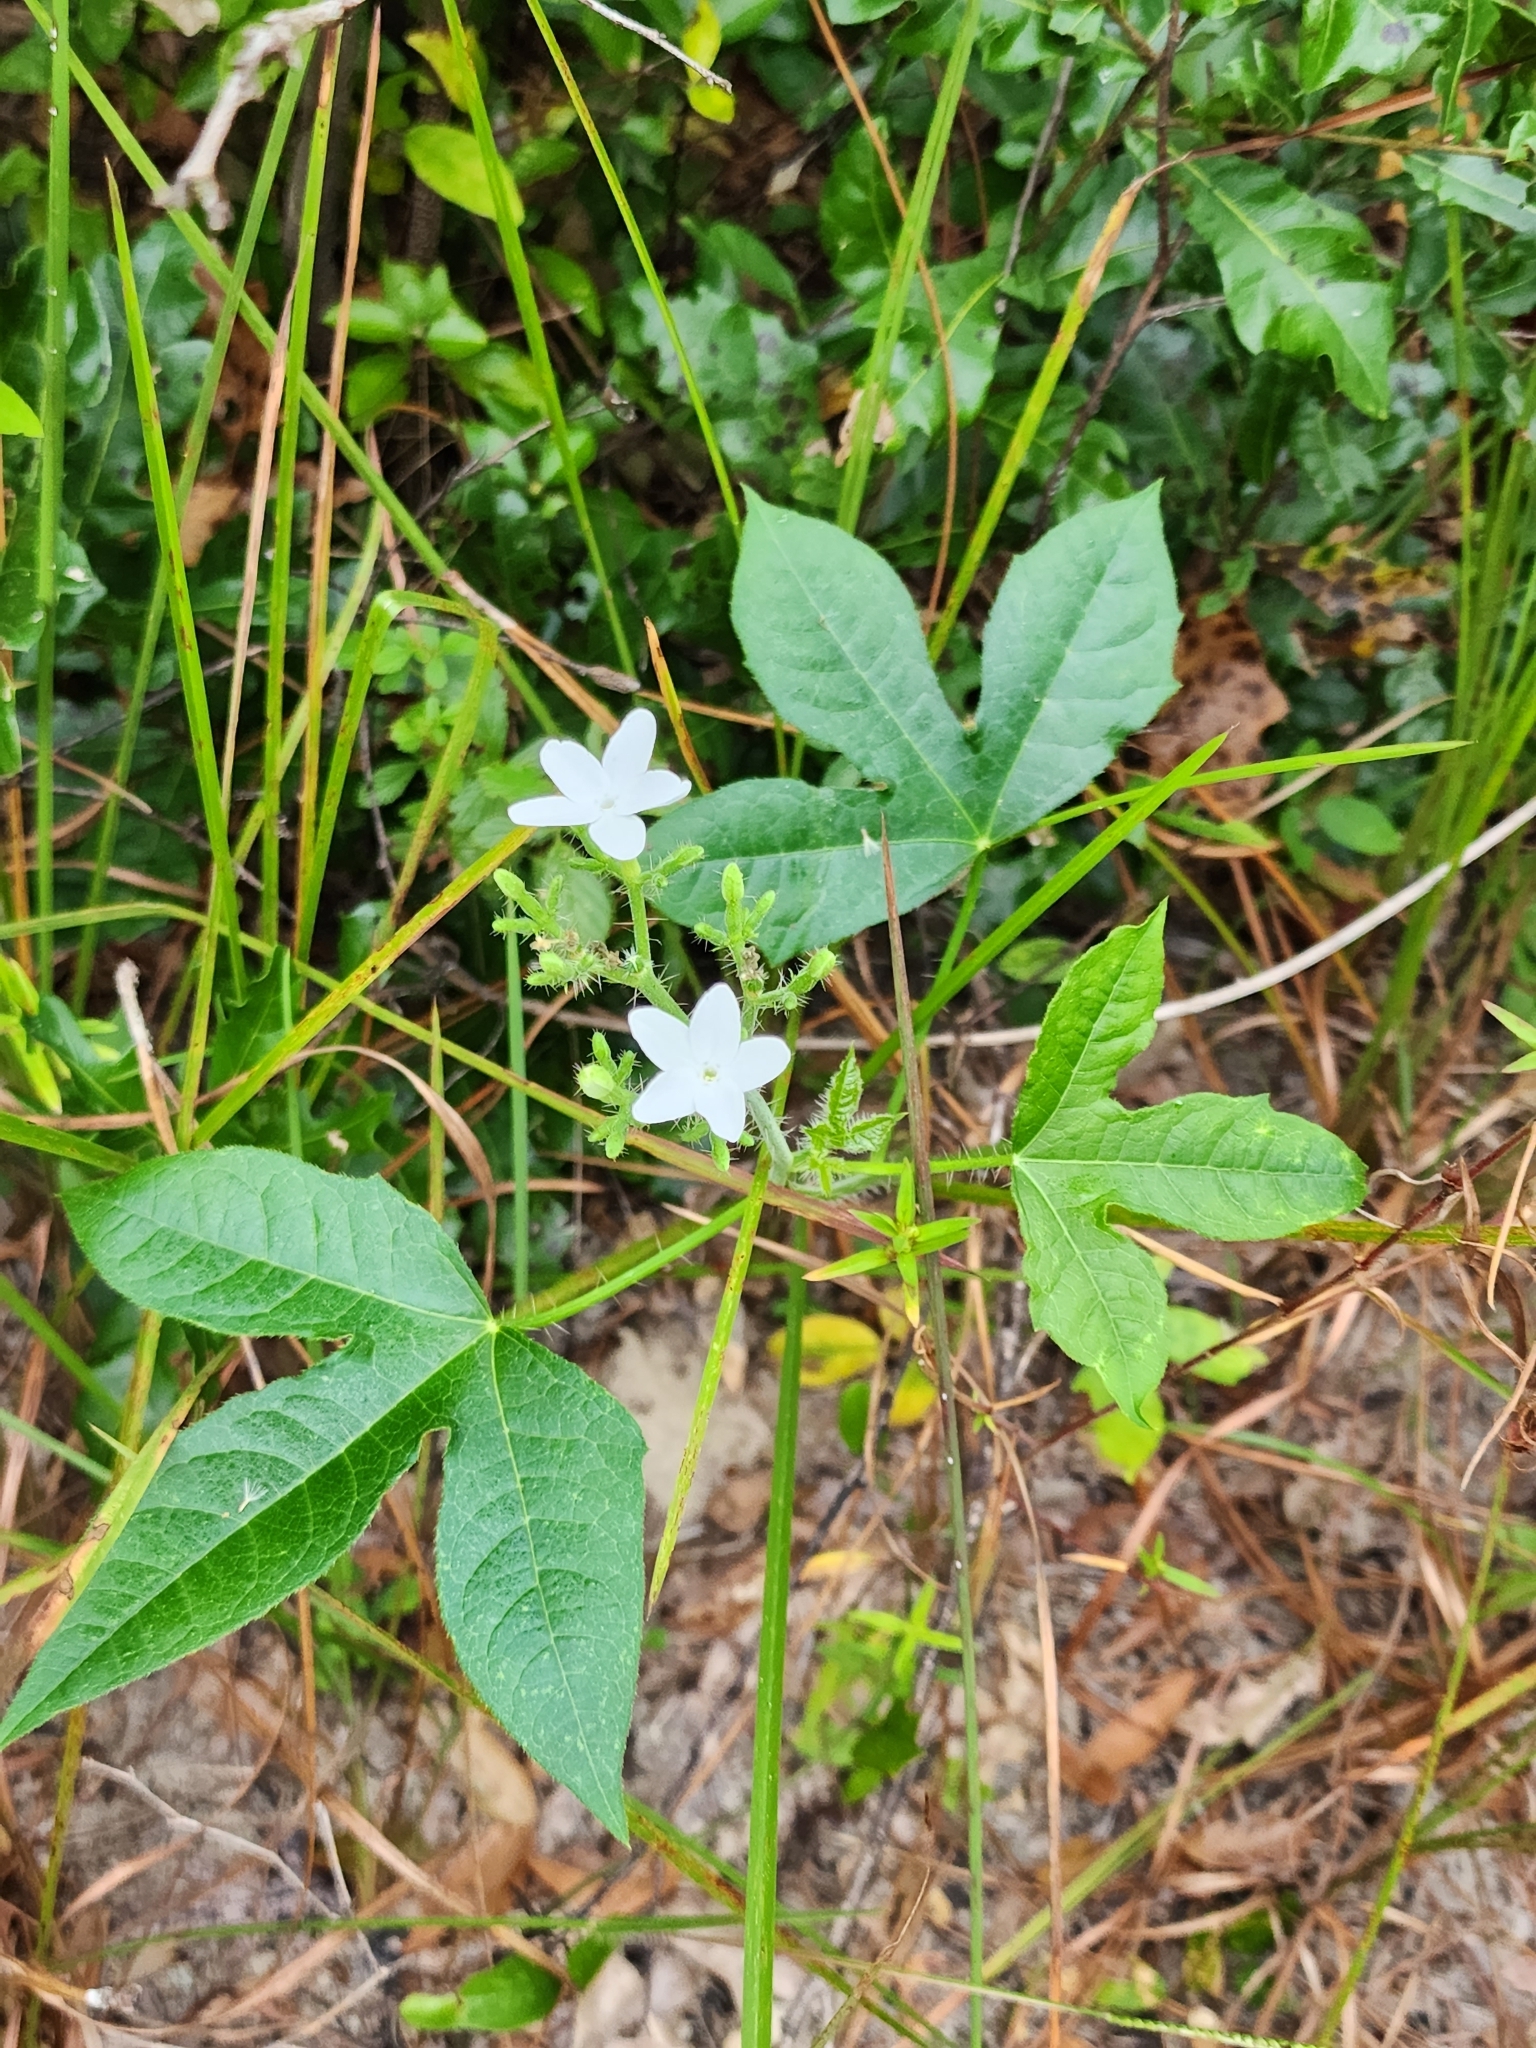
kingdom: Plantae
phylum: Tracheophyta
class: Magnoliopsida
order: Malpighiales
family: Euphorbiaceae
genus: Cnidoscolus
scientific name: Cnidoscolus stimulosus
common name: Bull-nettle
